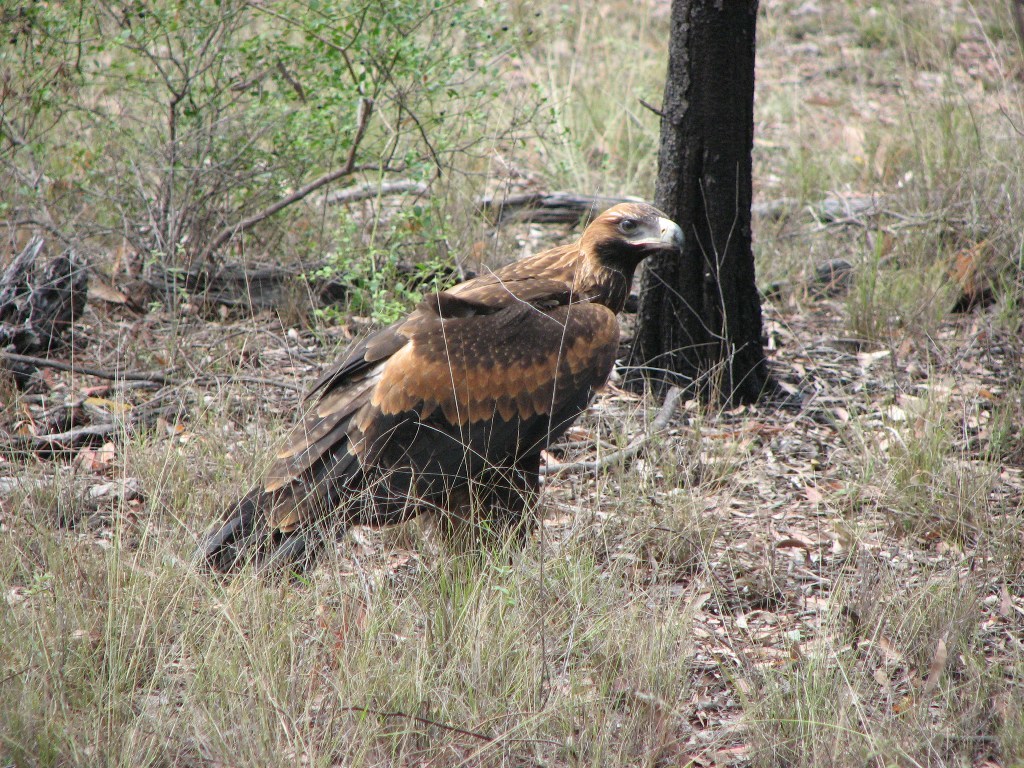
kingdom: Animalia
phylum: Chordata
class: Aves
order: Accipitriformes
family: Accipitridae
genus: Aquila
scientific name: Aquila audax
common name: Wedge-tailed eagle
